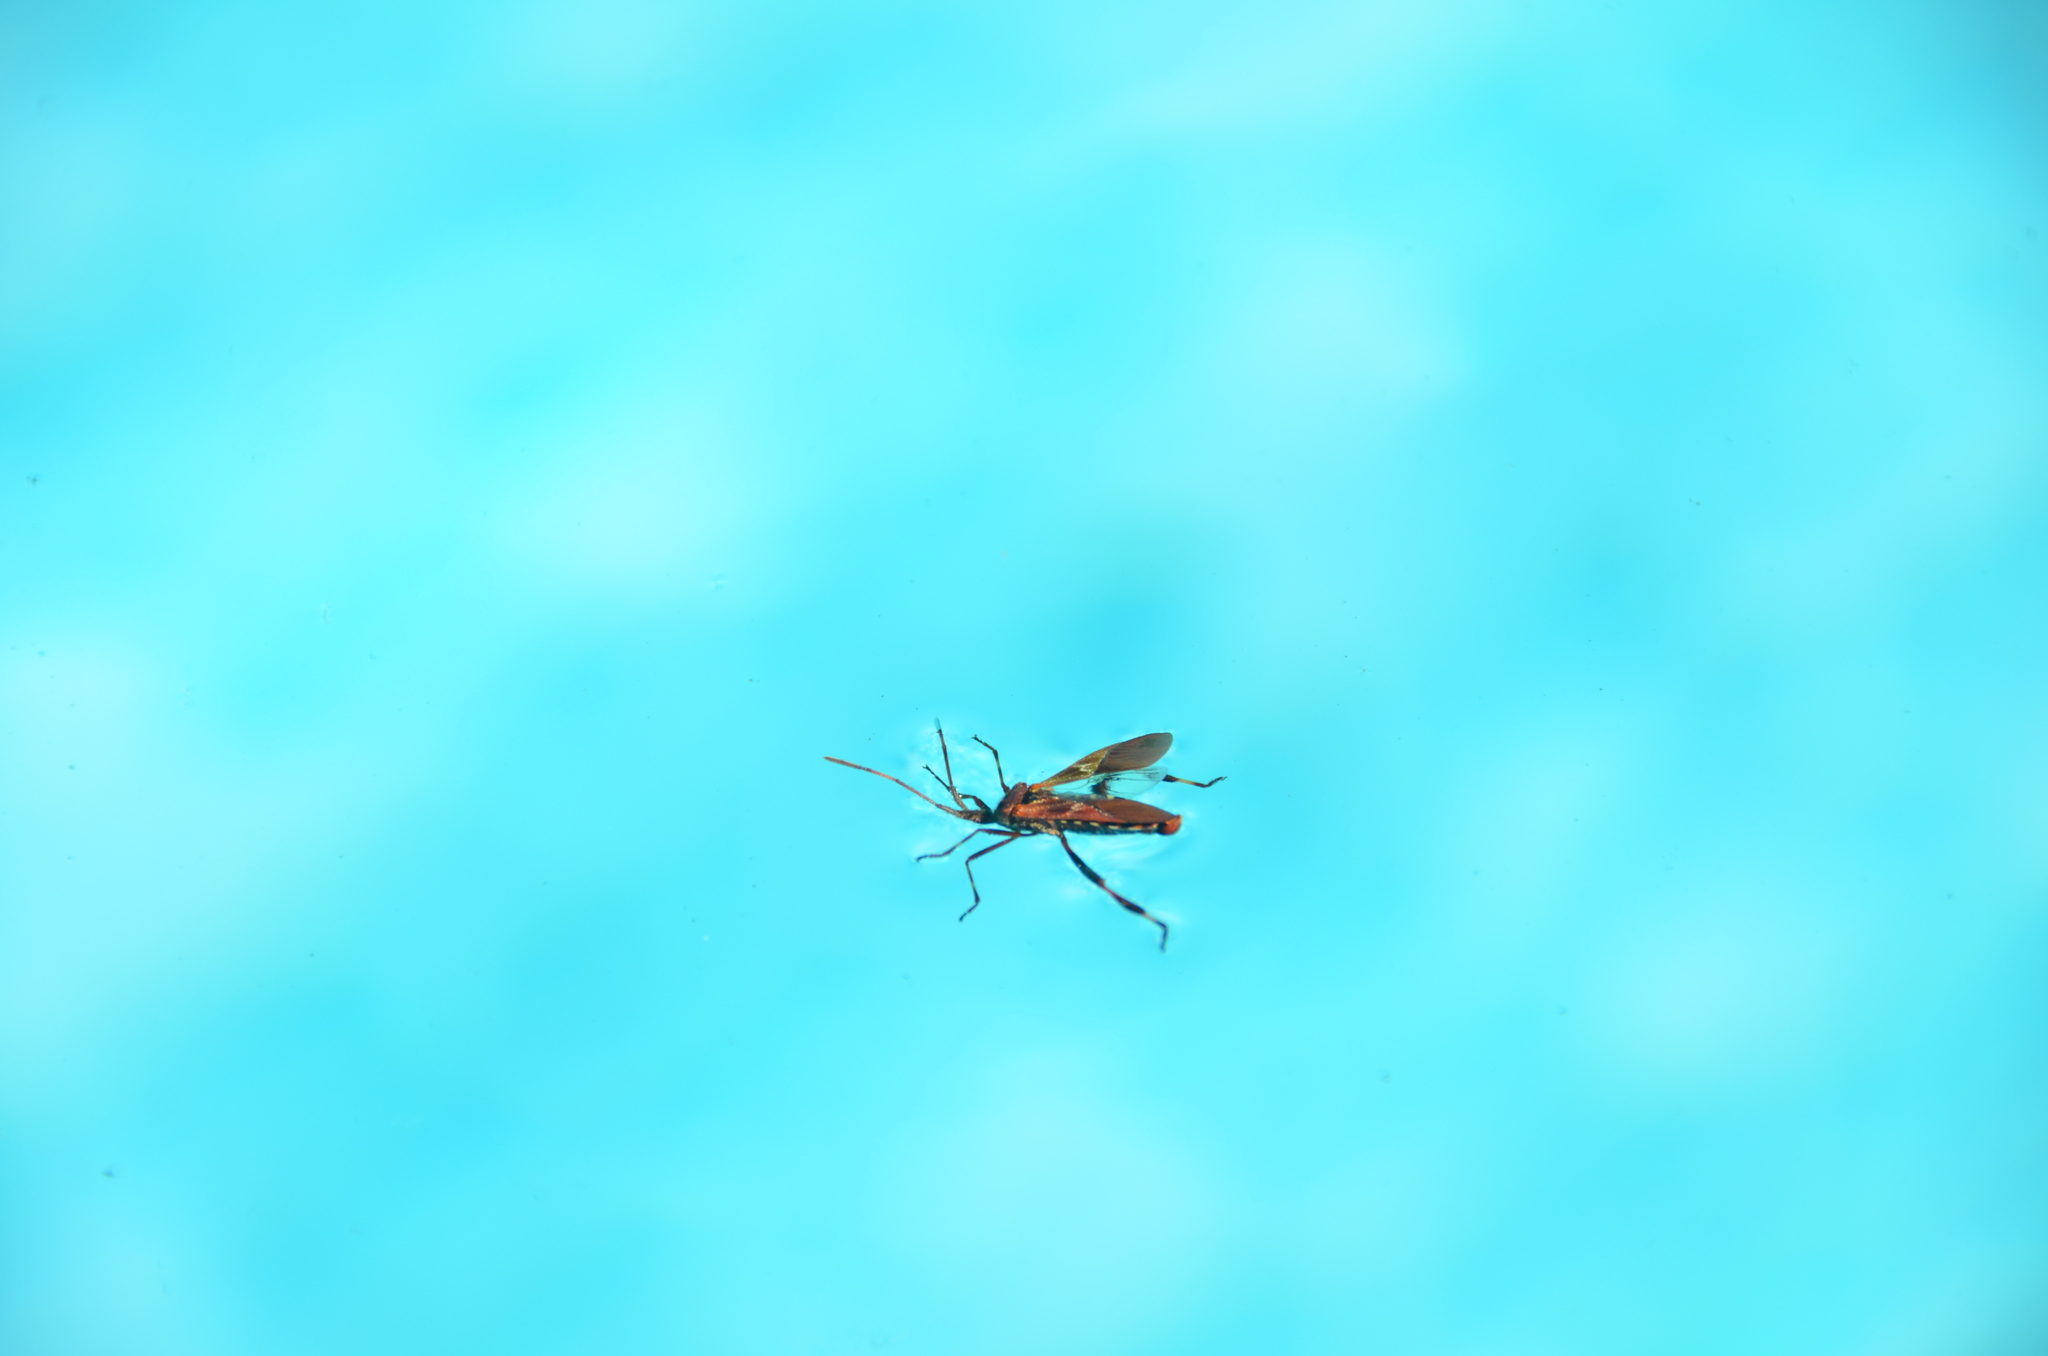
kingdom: Animalia
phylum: Arthropoda
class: Insecta
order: Hemiptera
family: Coreidae
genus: Leptoglossus
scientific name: Leptoglossus occidentalis
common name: Western conifer-seed bug
